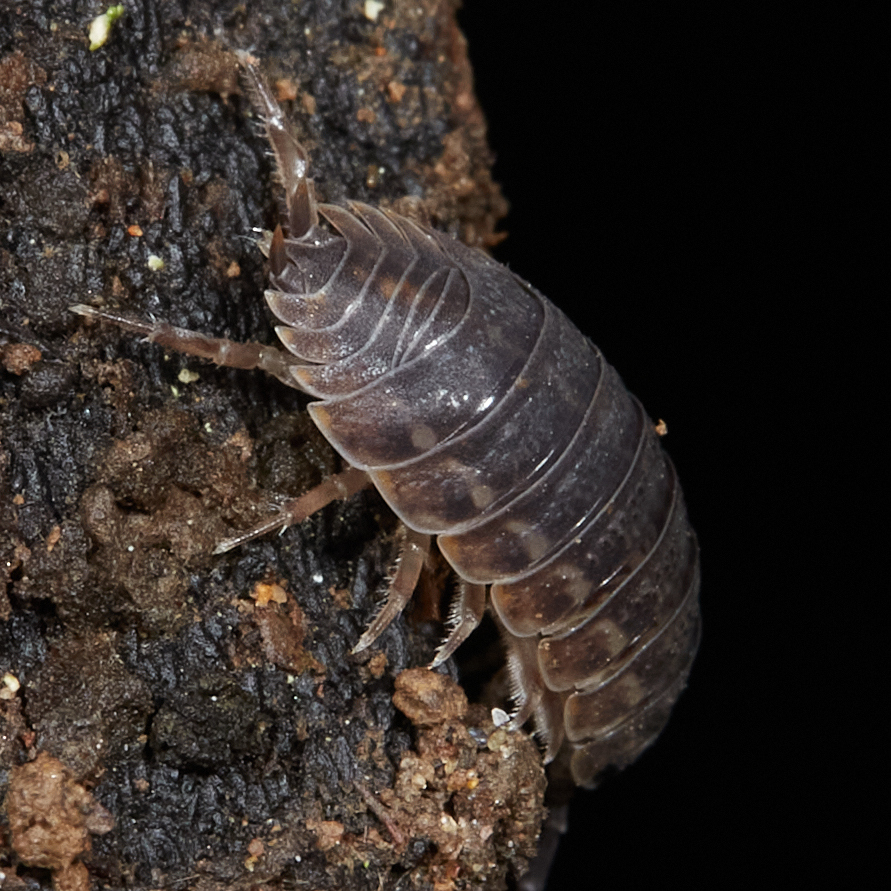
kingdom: Animalia
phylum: Arthropoda
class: Malacostraca
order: Isopoda
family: Trachelipodidae
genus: Trachelipus
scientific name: Trachelipus rathkii
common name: Isopod
